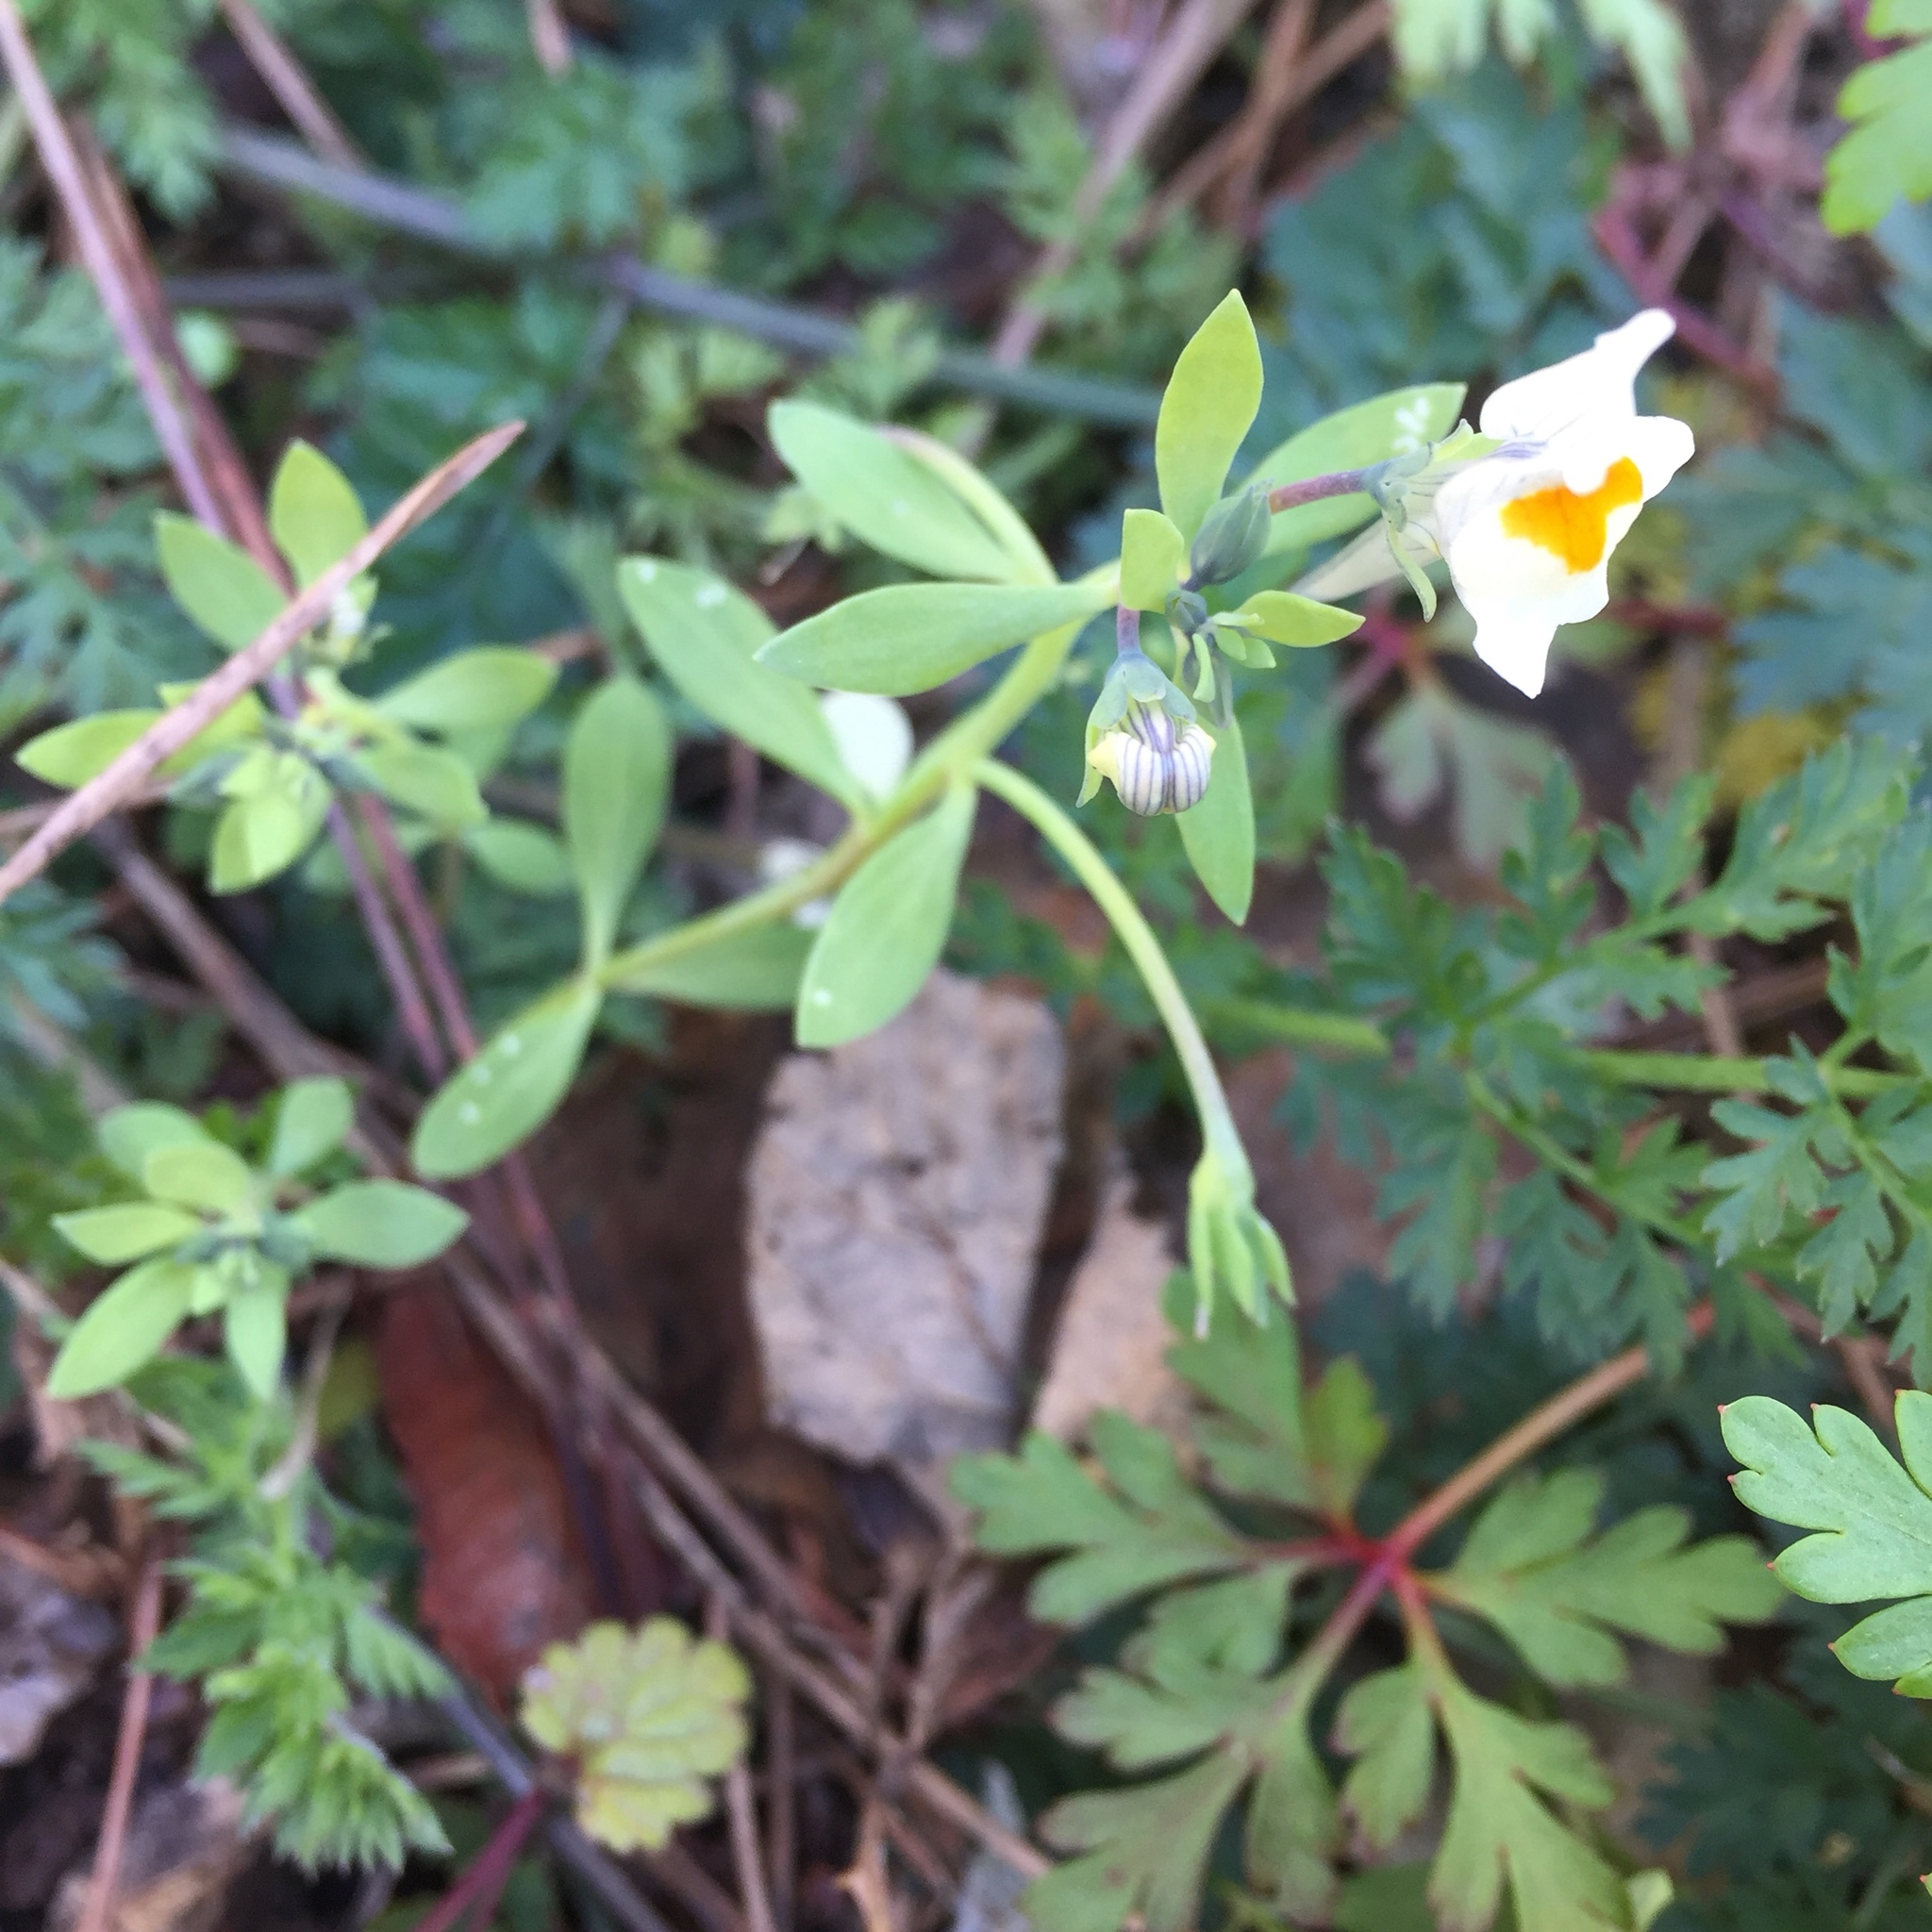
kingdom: Plantae
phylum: Tracheophyta
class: Magnoliopsida
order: Lamiales
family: Plantaginaceae
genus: Linaria
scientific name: Linaria reflexa
